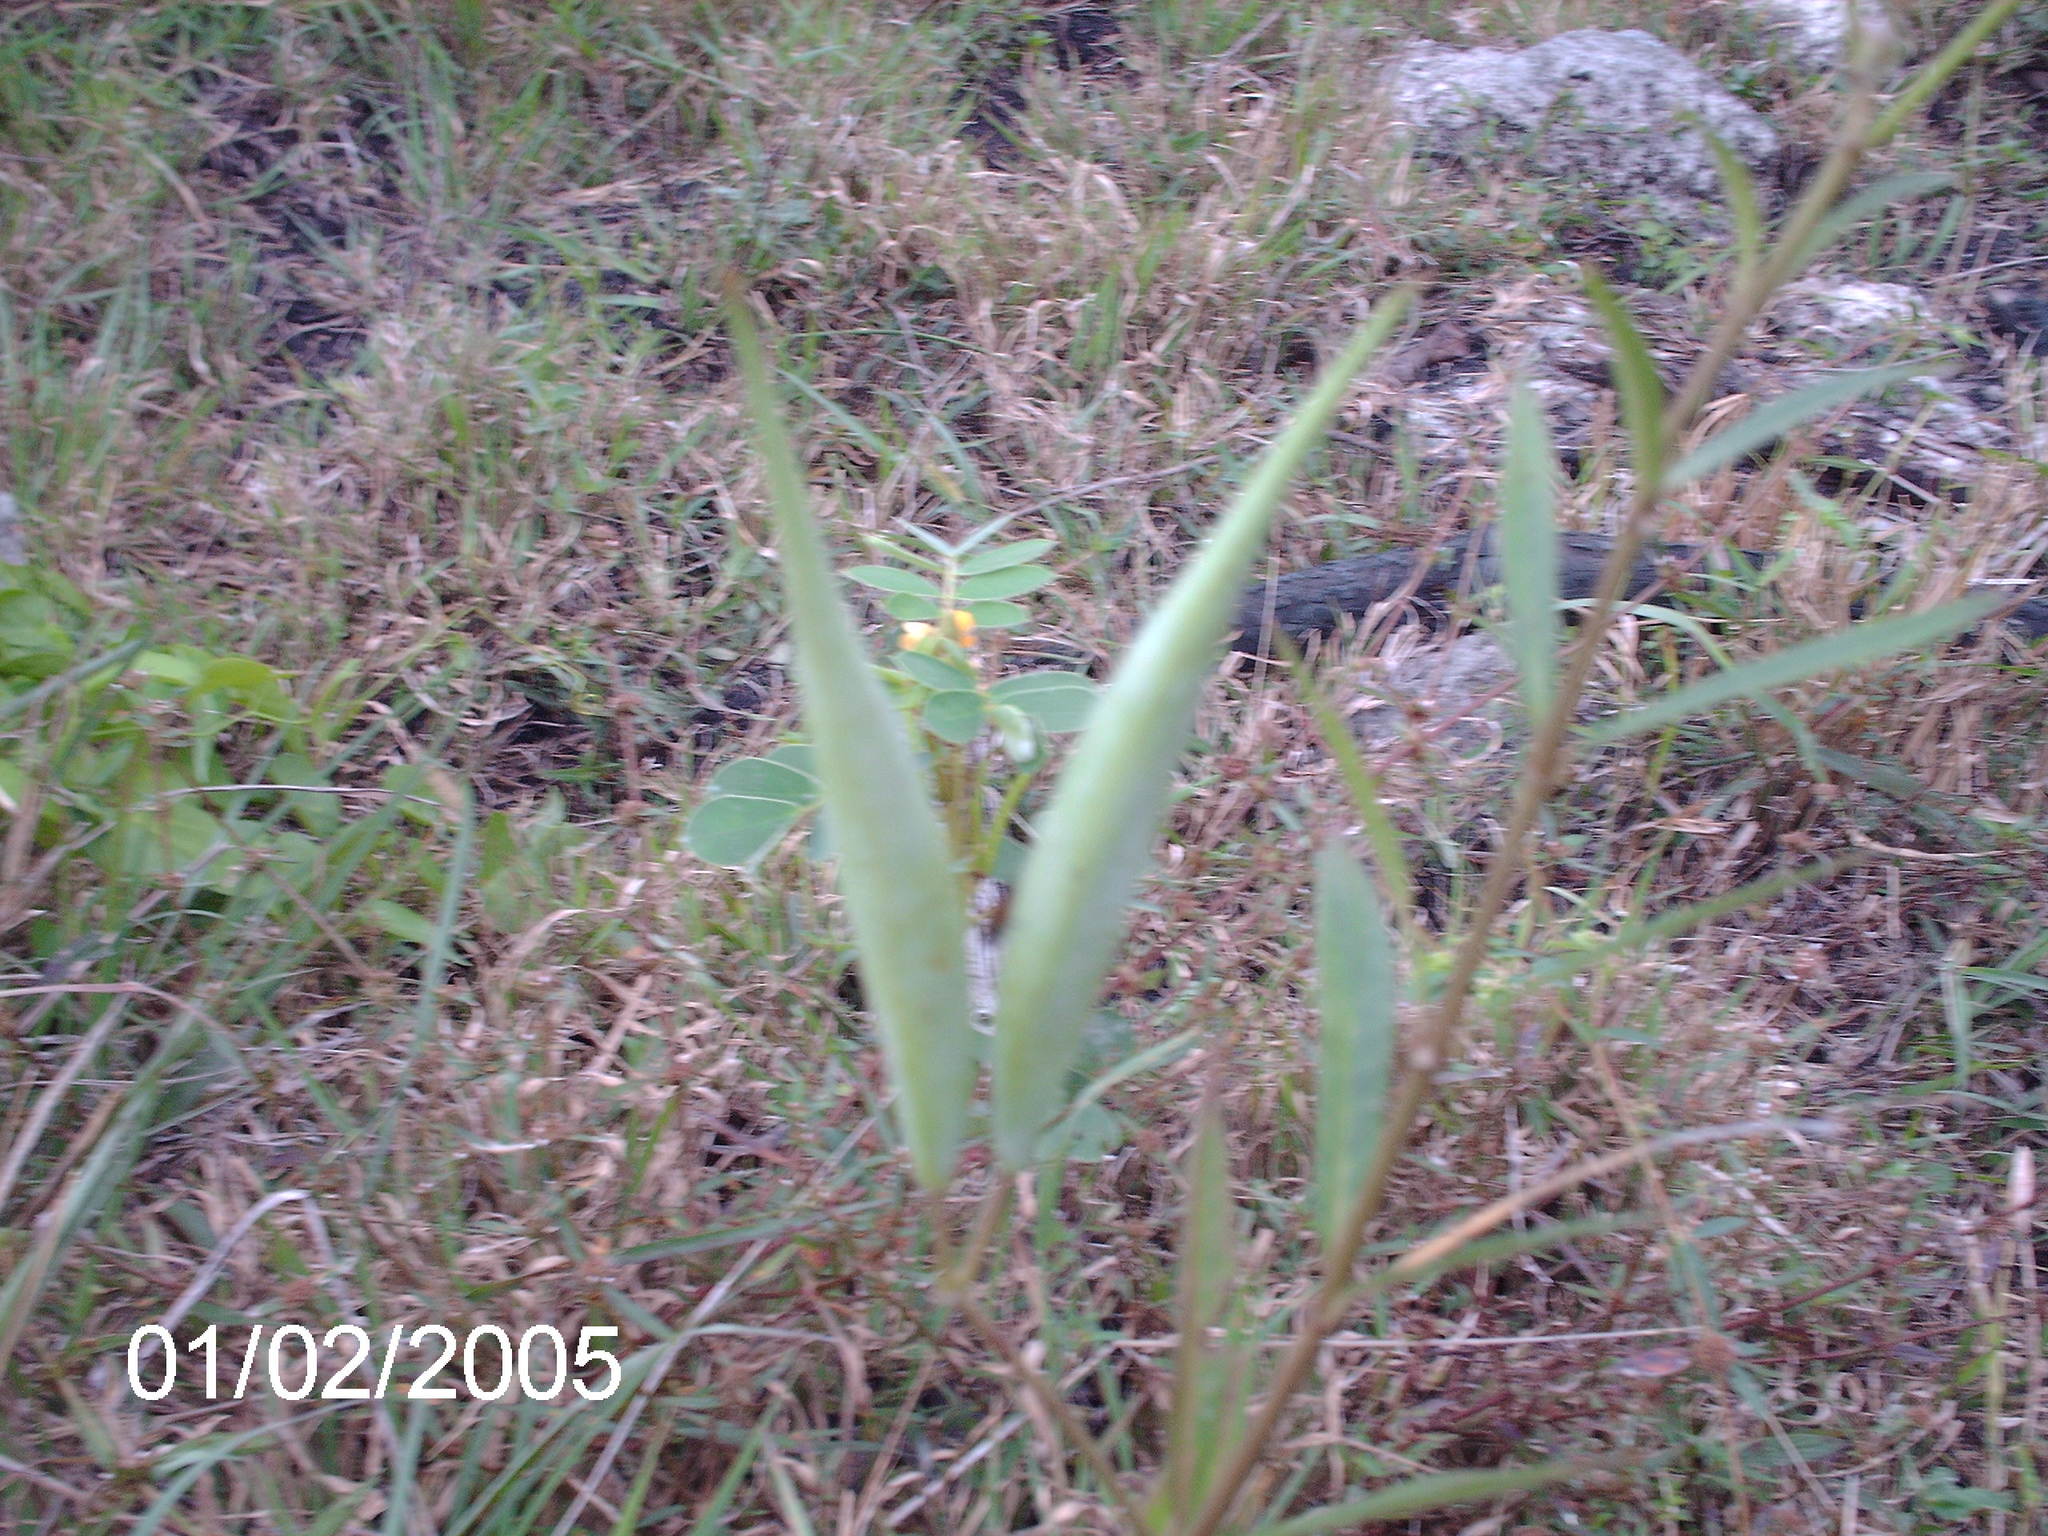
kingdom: Plantae
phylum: Tracheophyta
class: Magnoliopsida
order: Gentianales
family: Apocynaceae
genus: Asclepias
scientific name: Asclepias curassavica
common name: Bloodflower
